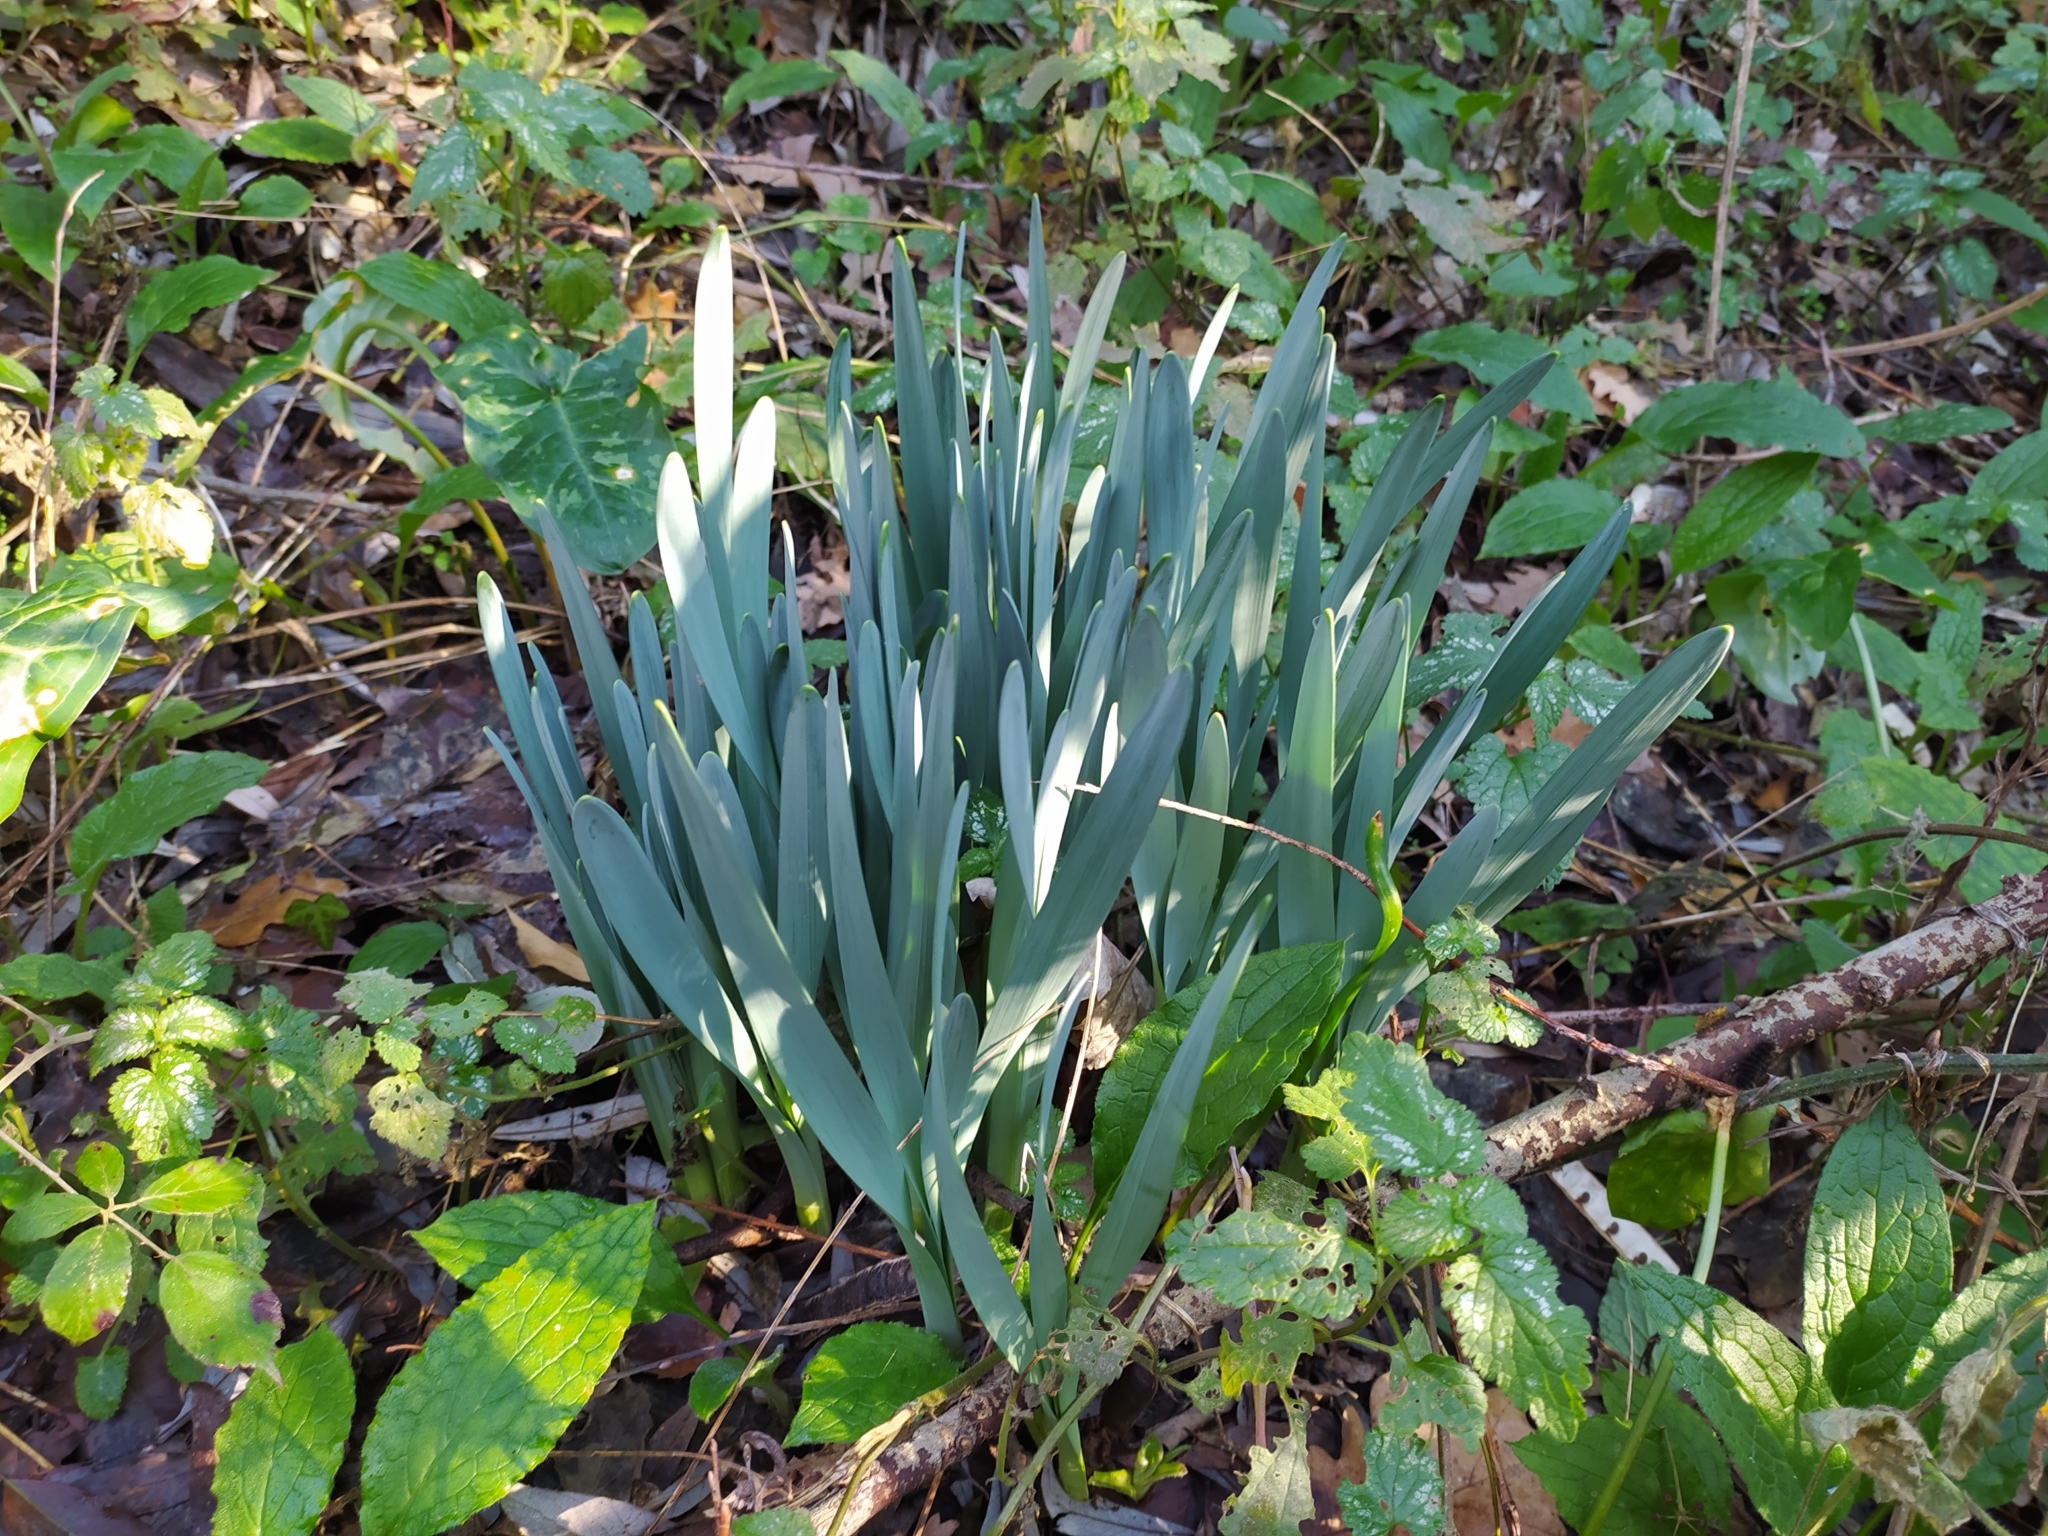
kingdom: Plantae
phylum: Tracheophyta
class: Liliopsida
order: Asparagales
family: Amaryllidaceae
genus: Narcissus
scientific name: Narcissus
